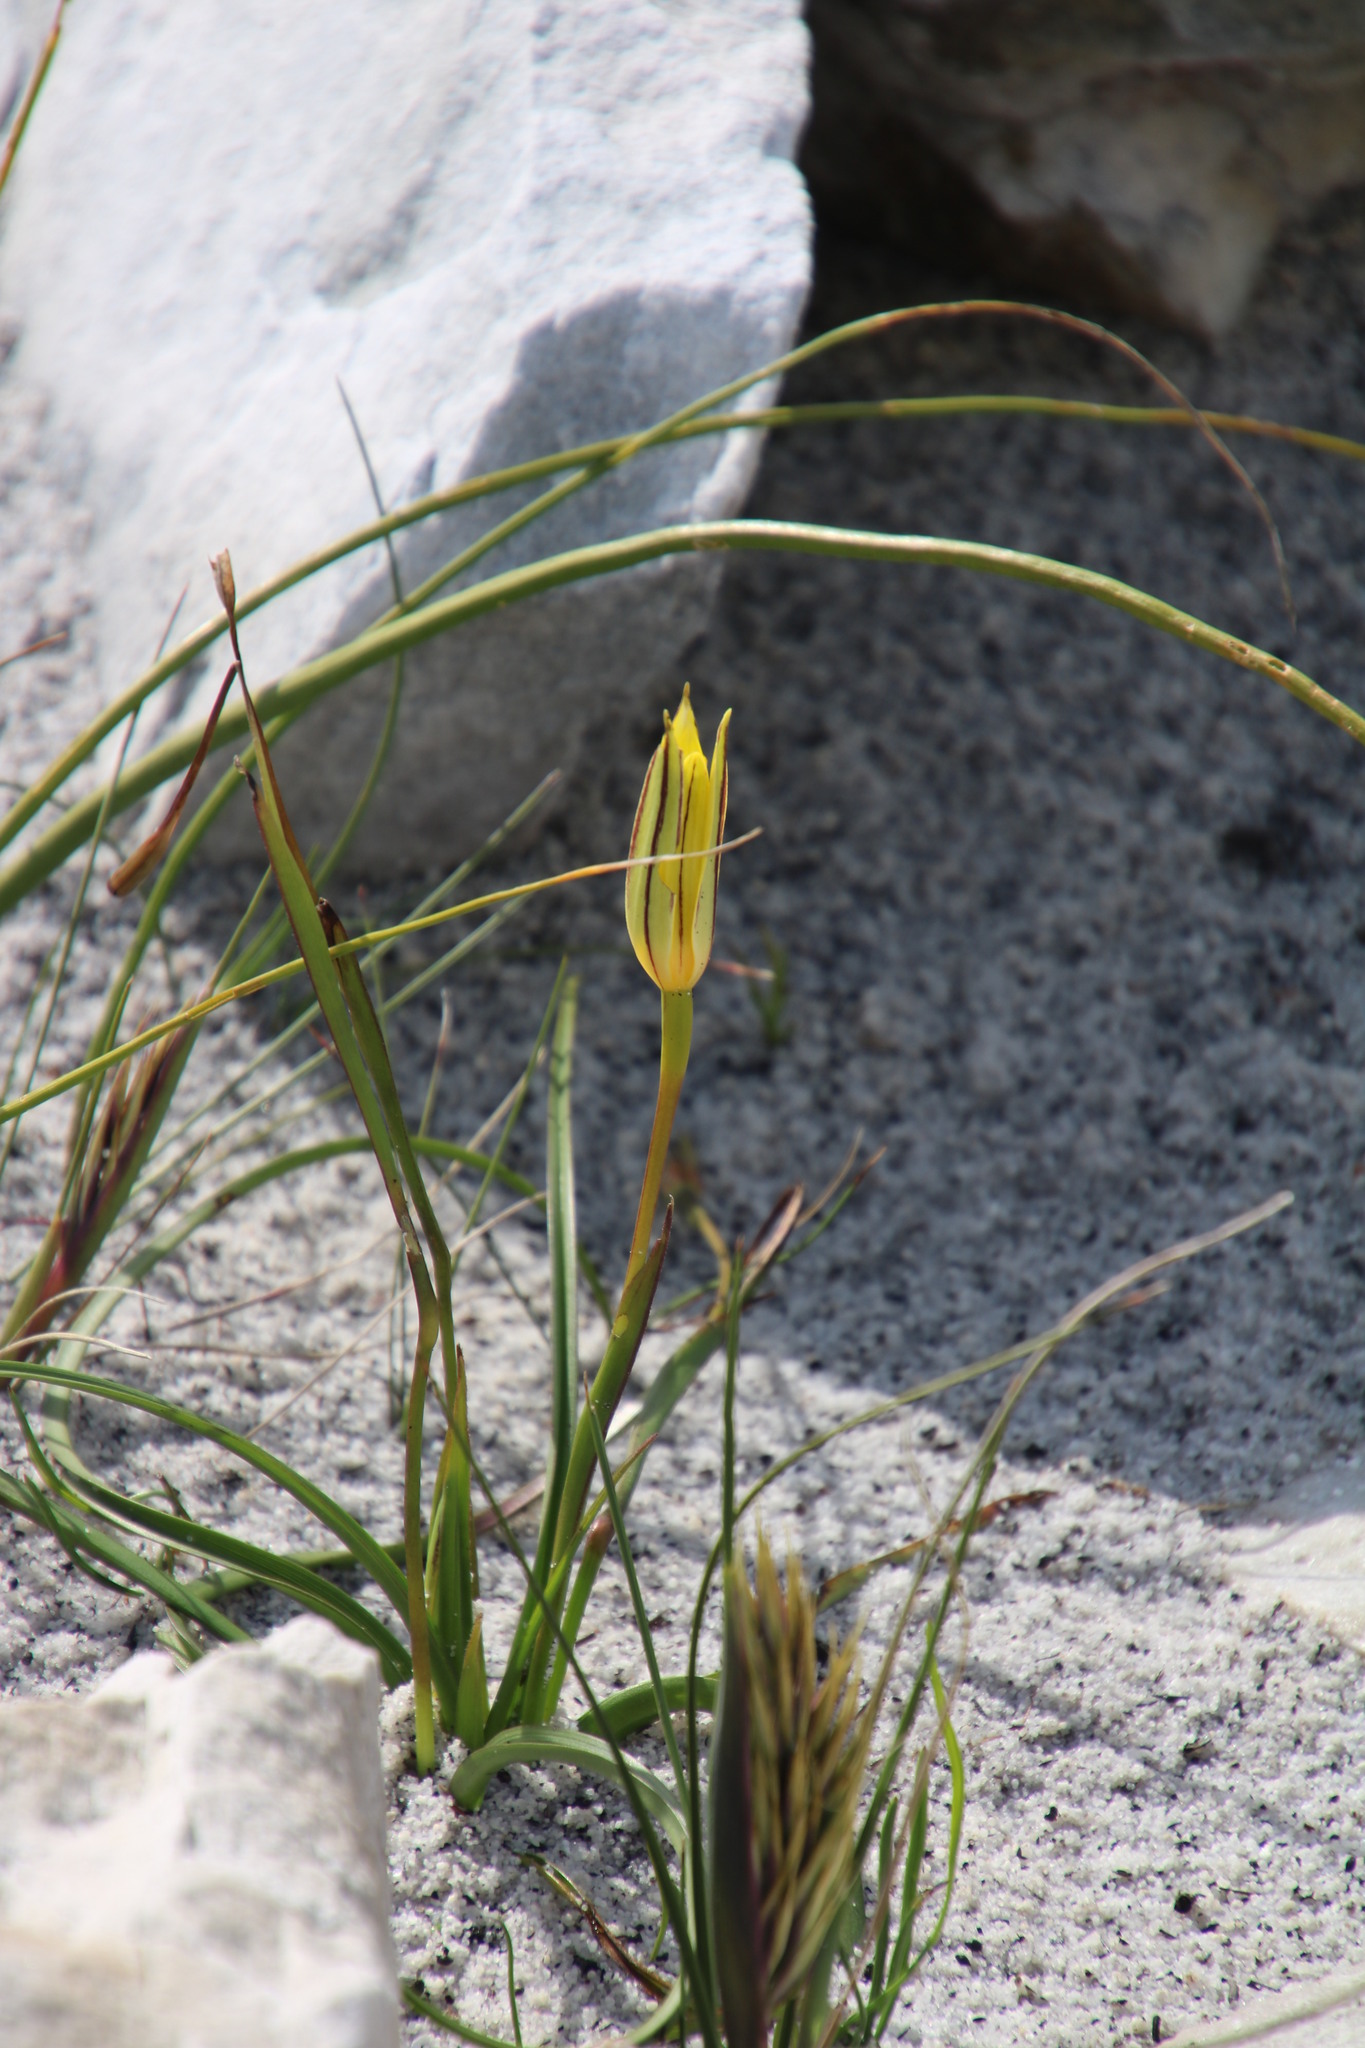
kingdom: Plantae
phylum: Tracheophyta
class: Liliopsida
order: Asparagales
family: Hypoxidaceae
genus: Pauridia
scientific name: Pauridia capensis
